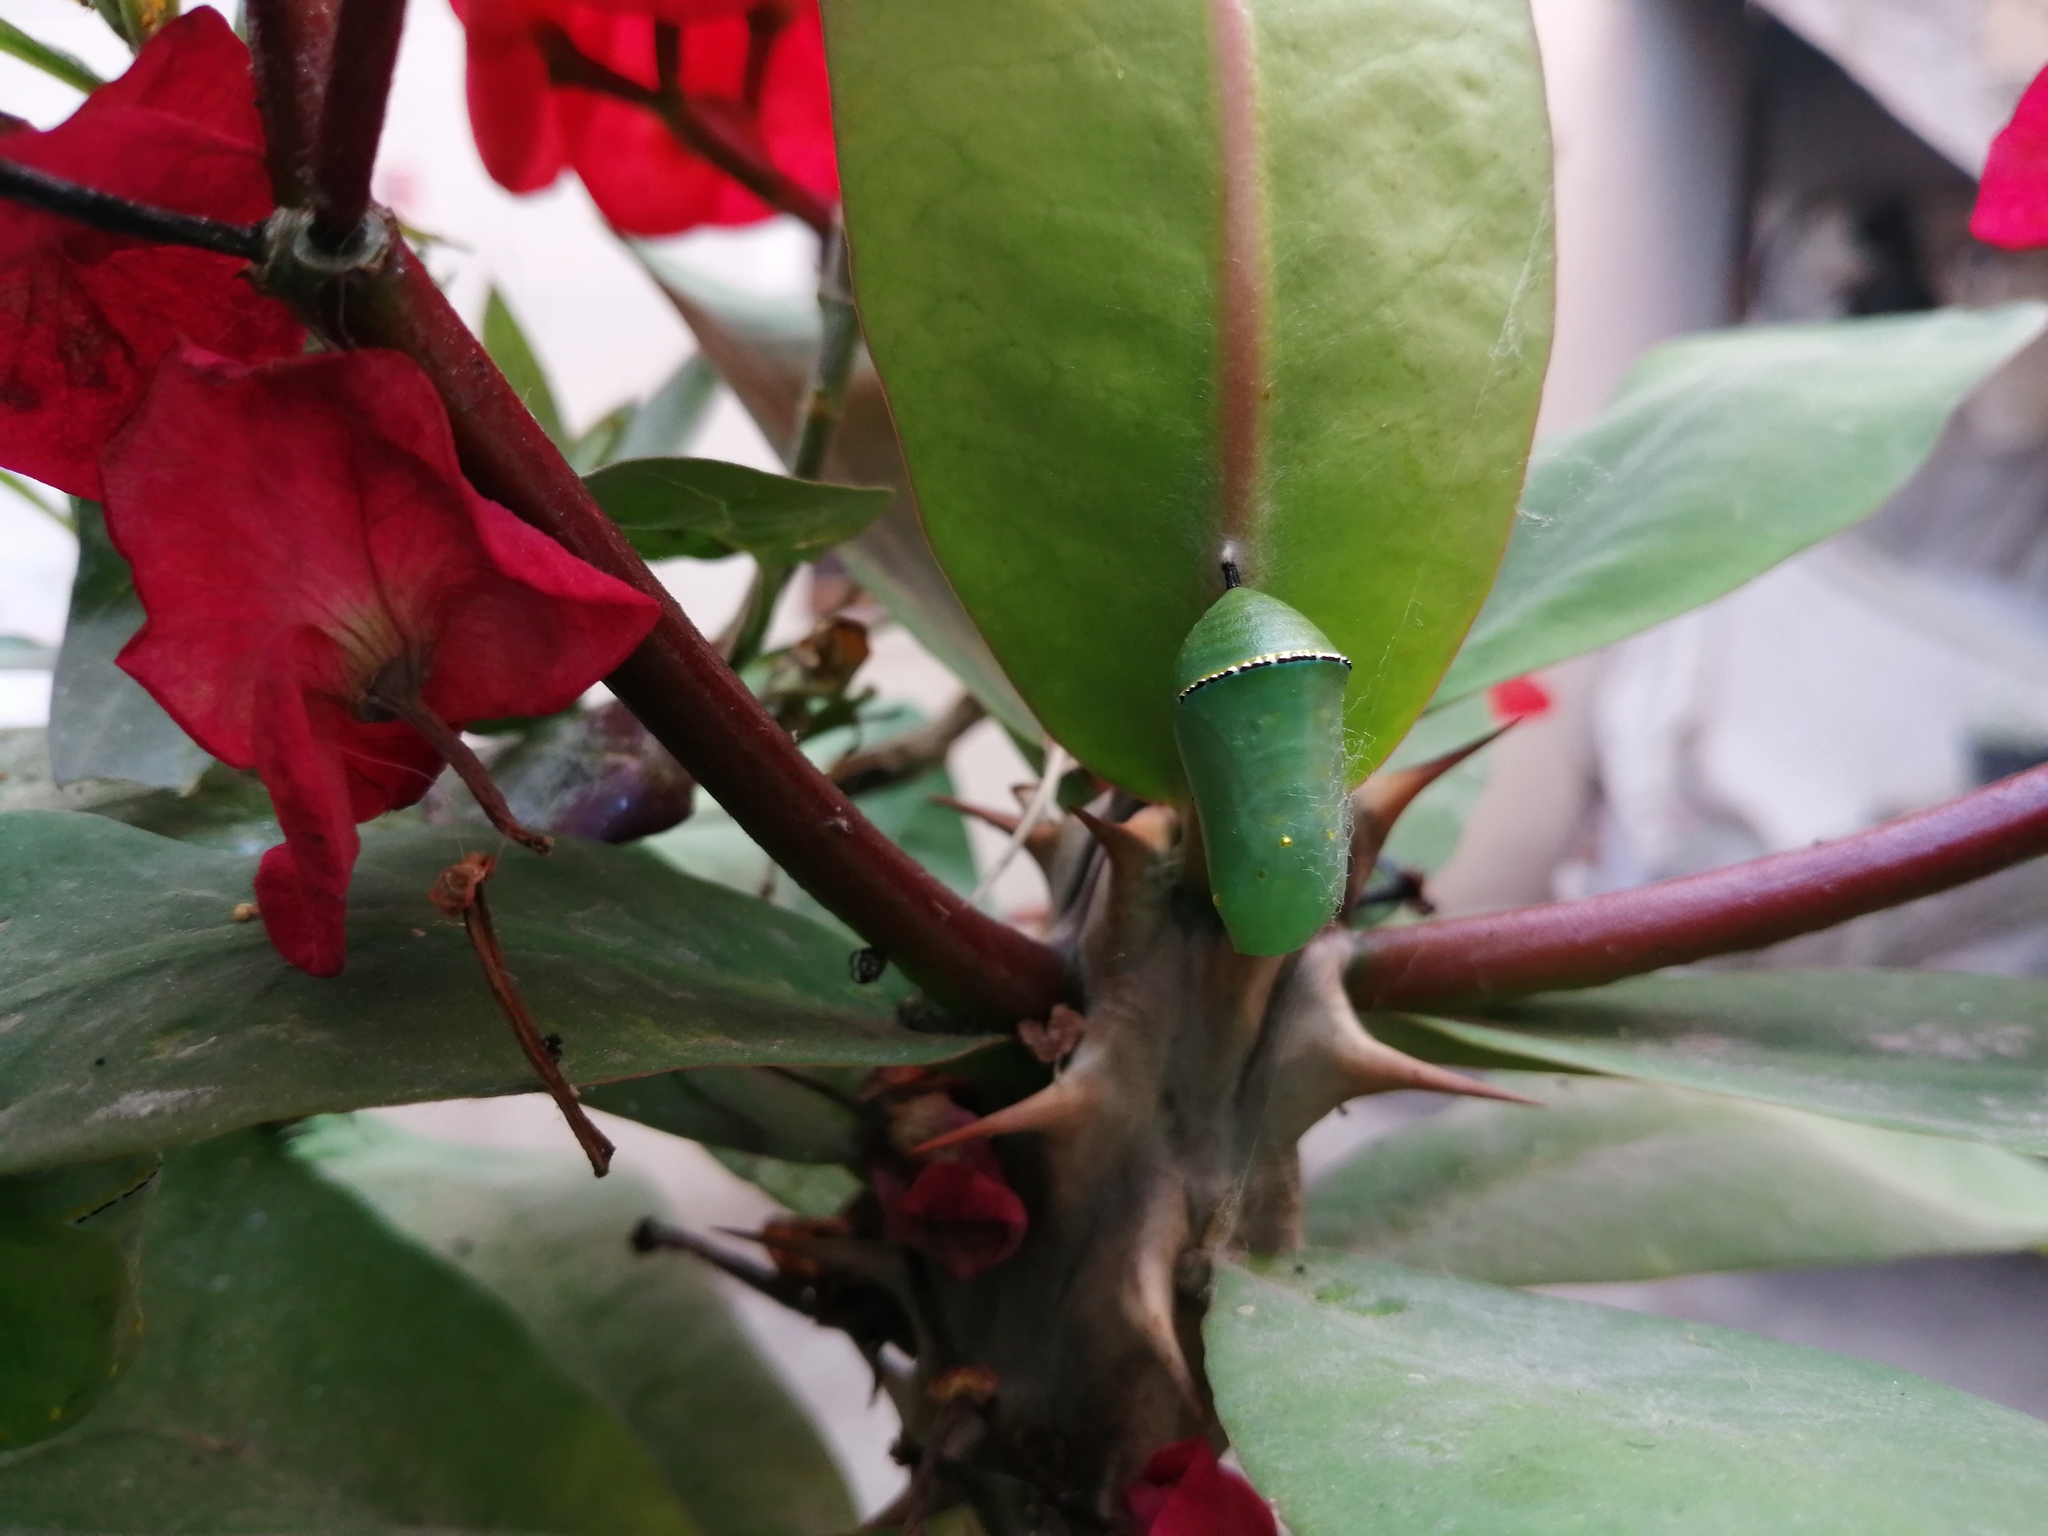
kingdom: Animalia
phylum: Arthropoda
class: Insecta
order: Lepidoptera
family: Nymphalidae
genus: Danaus
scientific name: Danaus gilippus
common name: Queen
